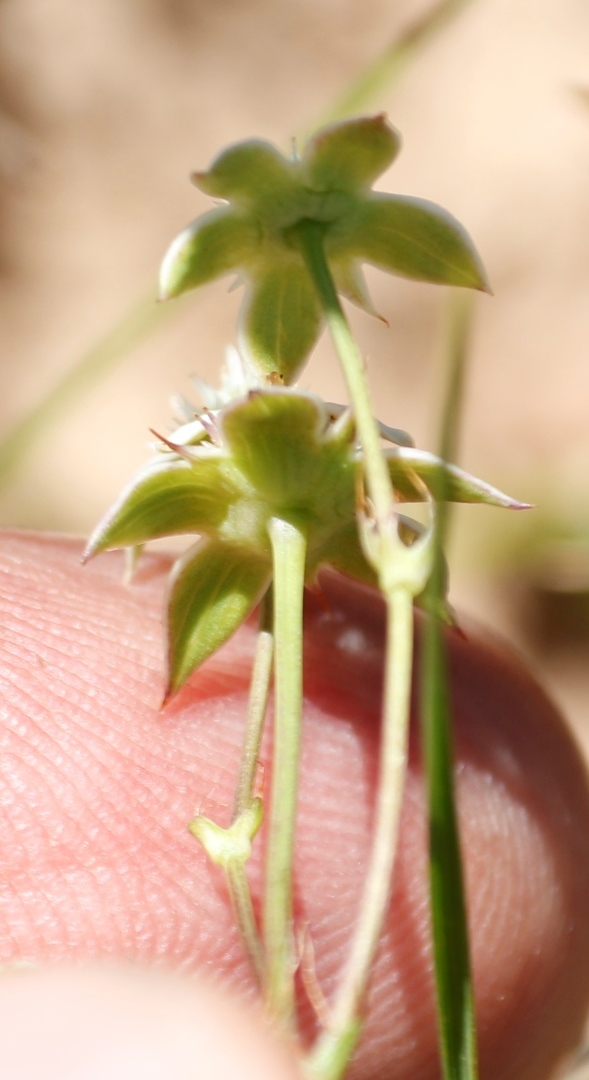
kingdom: Plantae
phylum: Tracheophyta
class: Magnoliopsida
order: Apiales
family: Apiaceae
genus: Alepidea
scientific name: Alepidea natalensis
